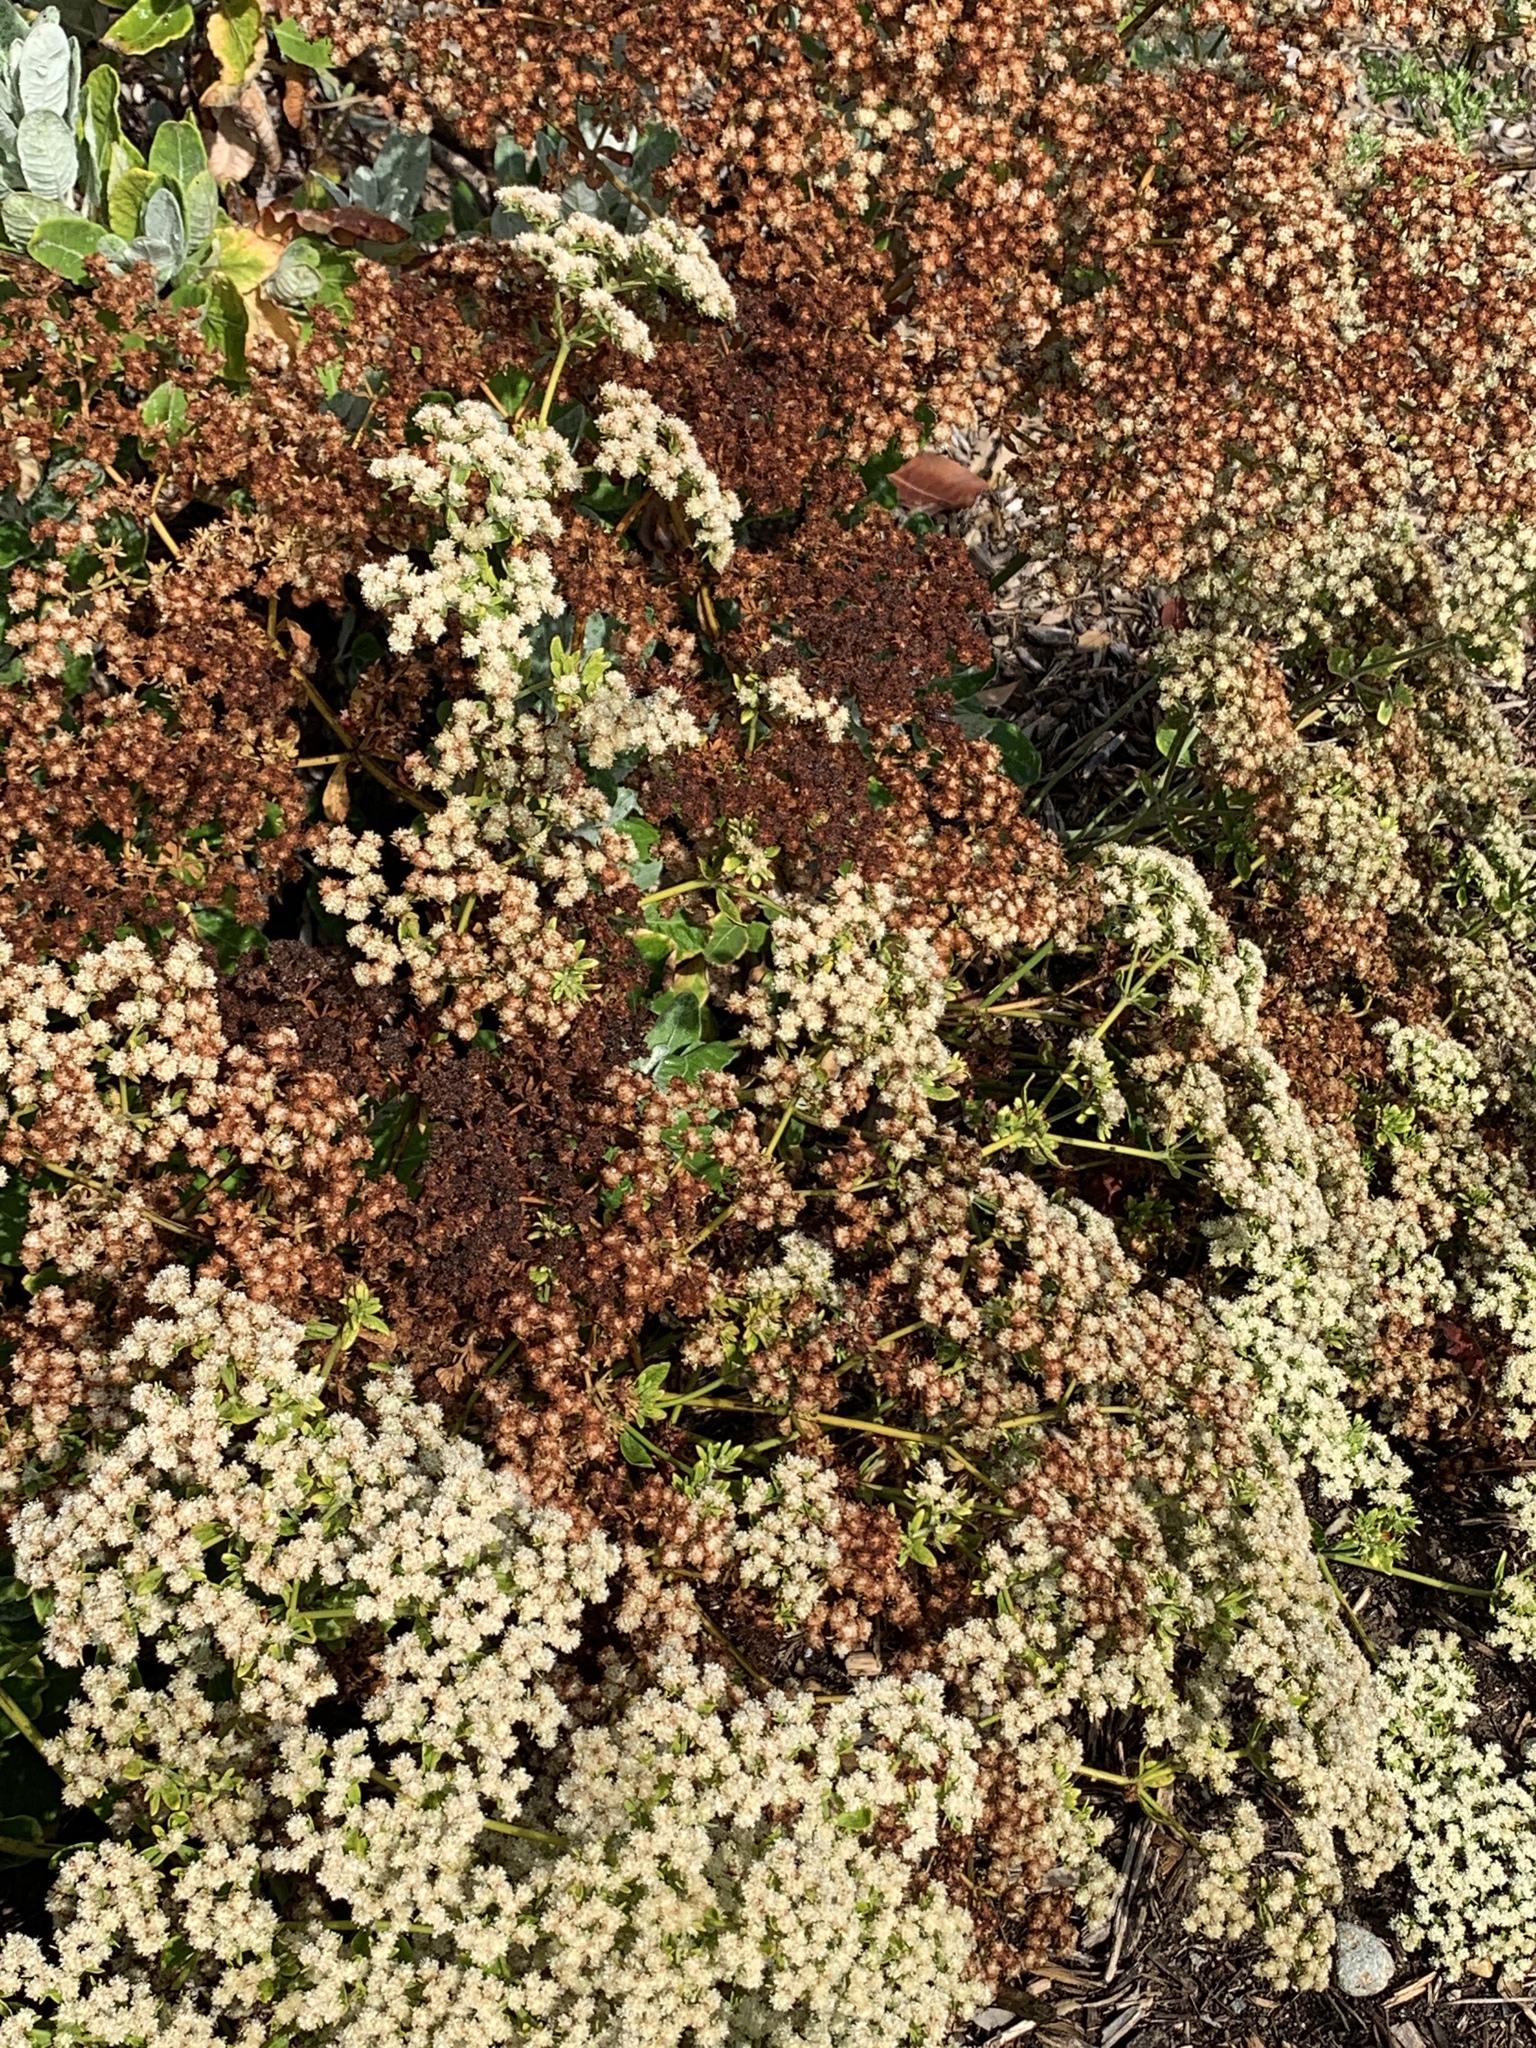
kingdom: Plantae
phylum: Tracheophyta
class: Magnoliopsida
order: Caryophyllales
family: Polygonaceae
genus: Eriogonum
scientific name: Eriogonum fasciculatum
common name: California wild buckwheat
